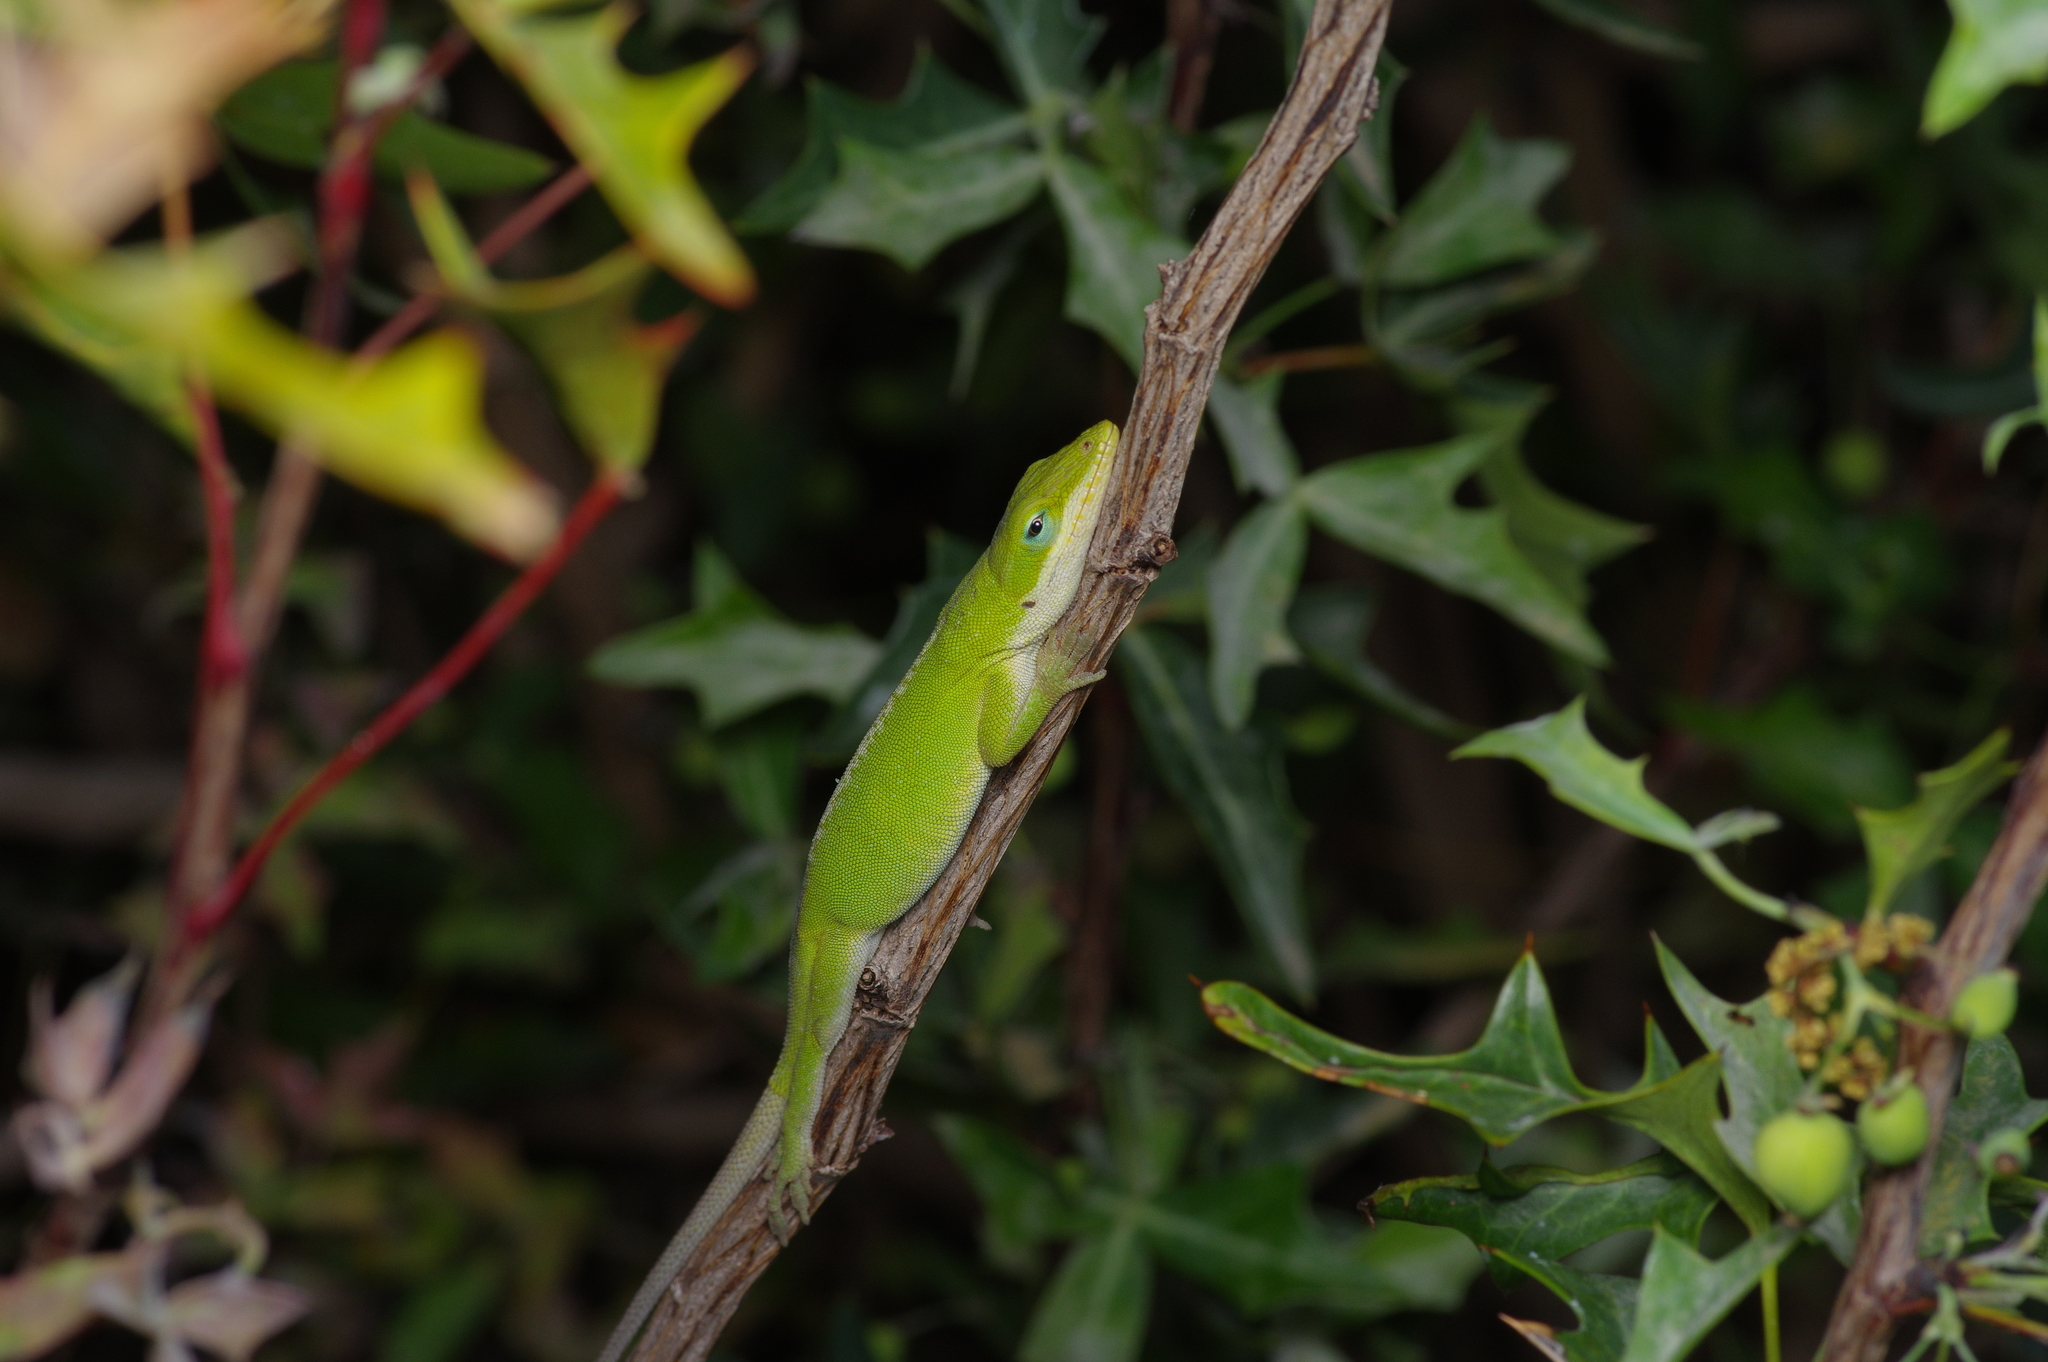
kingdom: Animalia
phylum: Chordata
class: Squamata
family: Dactyloidae
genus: Anolis
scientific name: Anolis carolinensis
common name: Green anole
